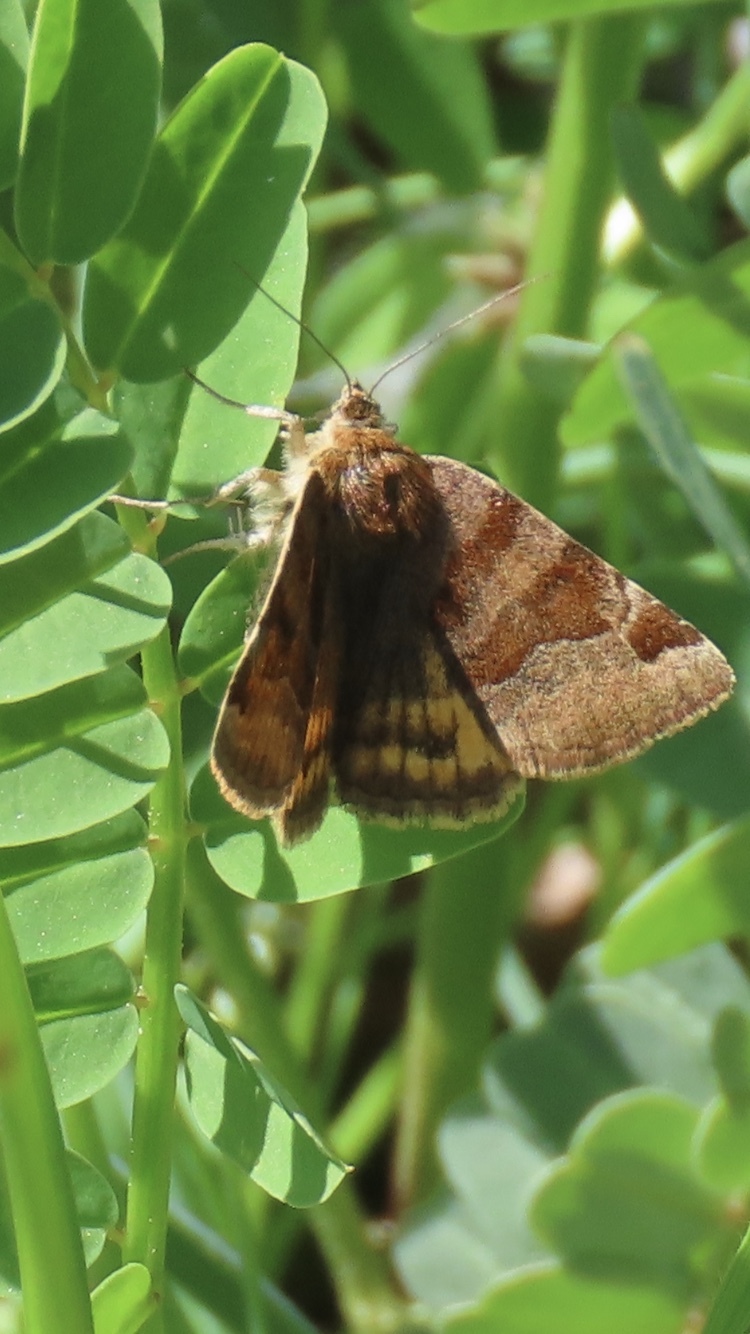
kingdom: Animalia
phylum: Arthropoda
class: Insecta
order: Lepidoptera
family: Erebidae
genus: Euclidia
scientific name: Euclidia glyphica
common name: Burnet companion
